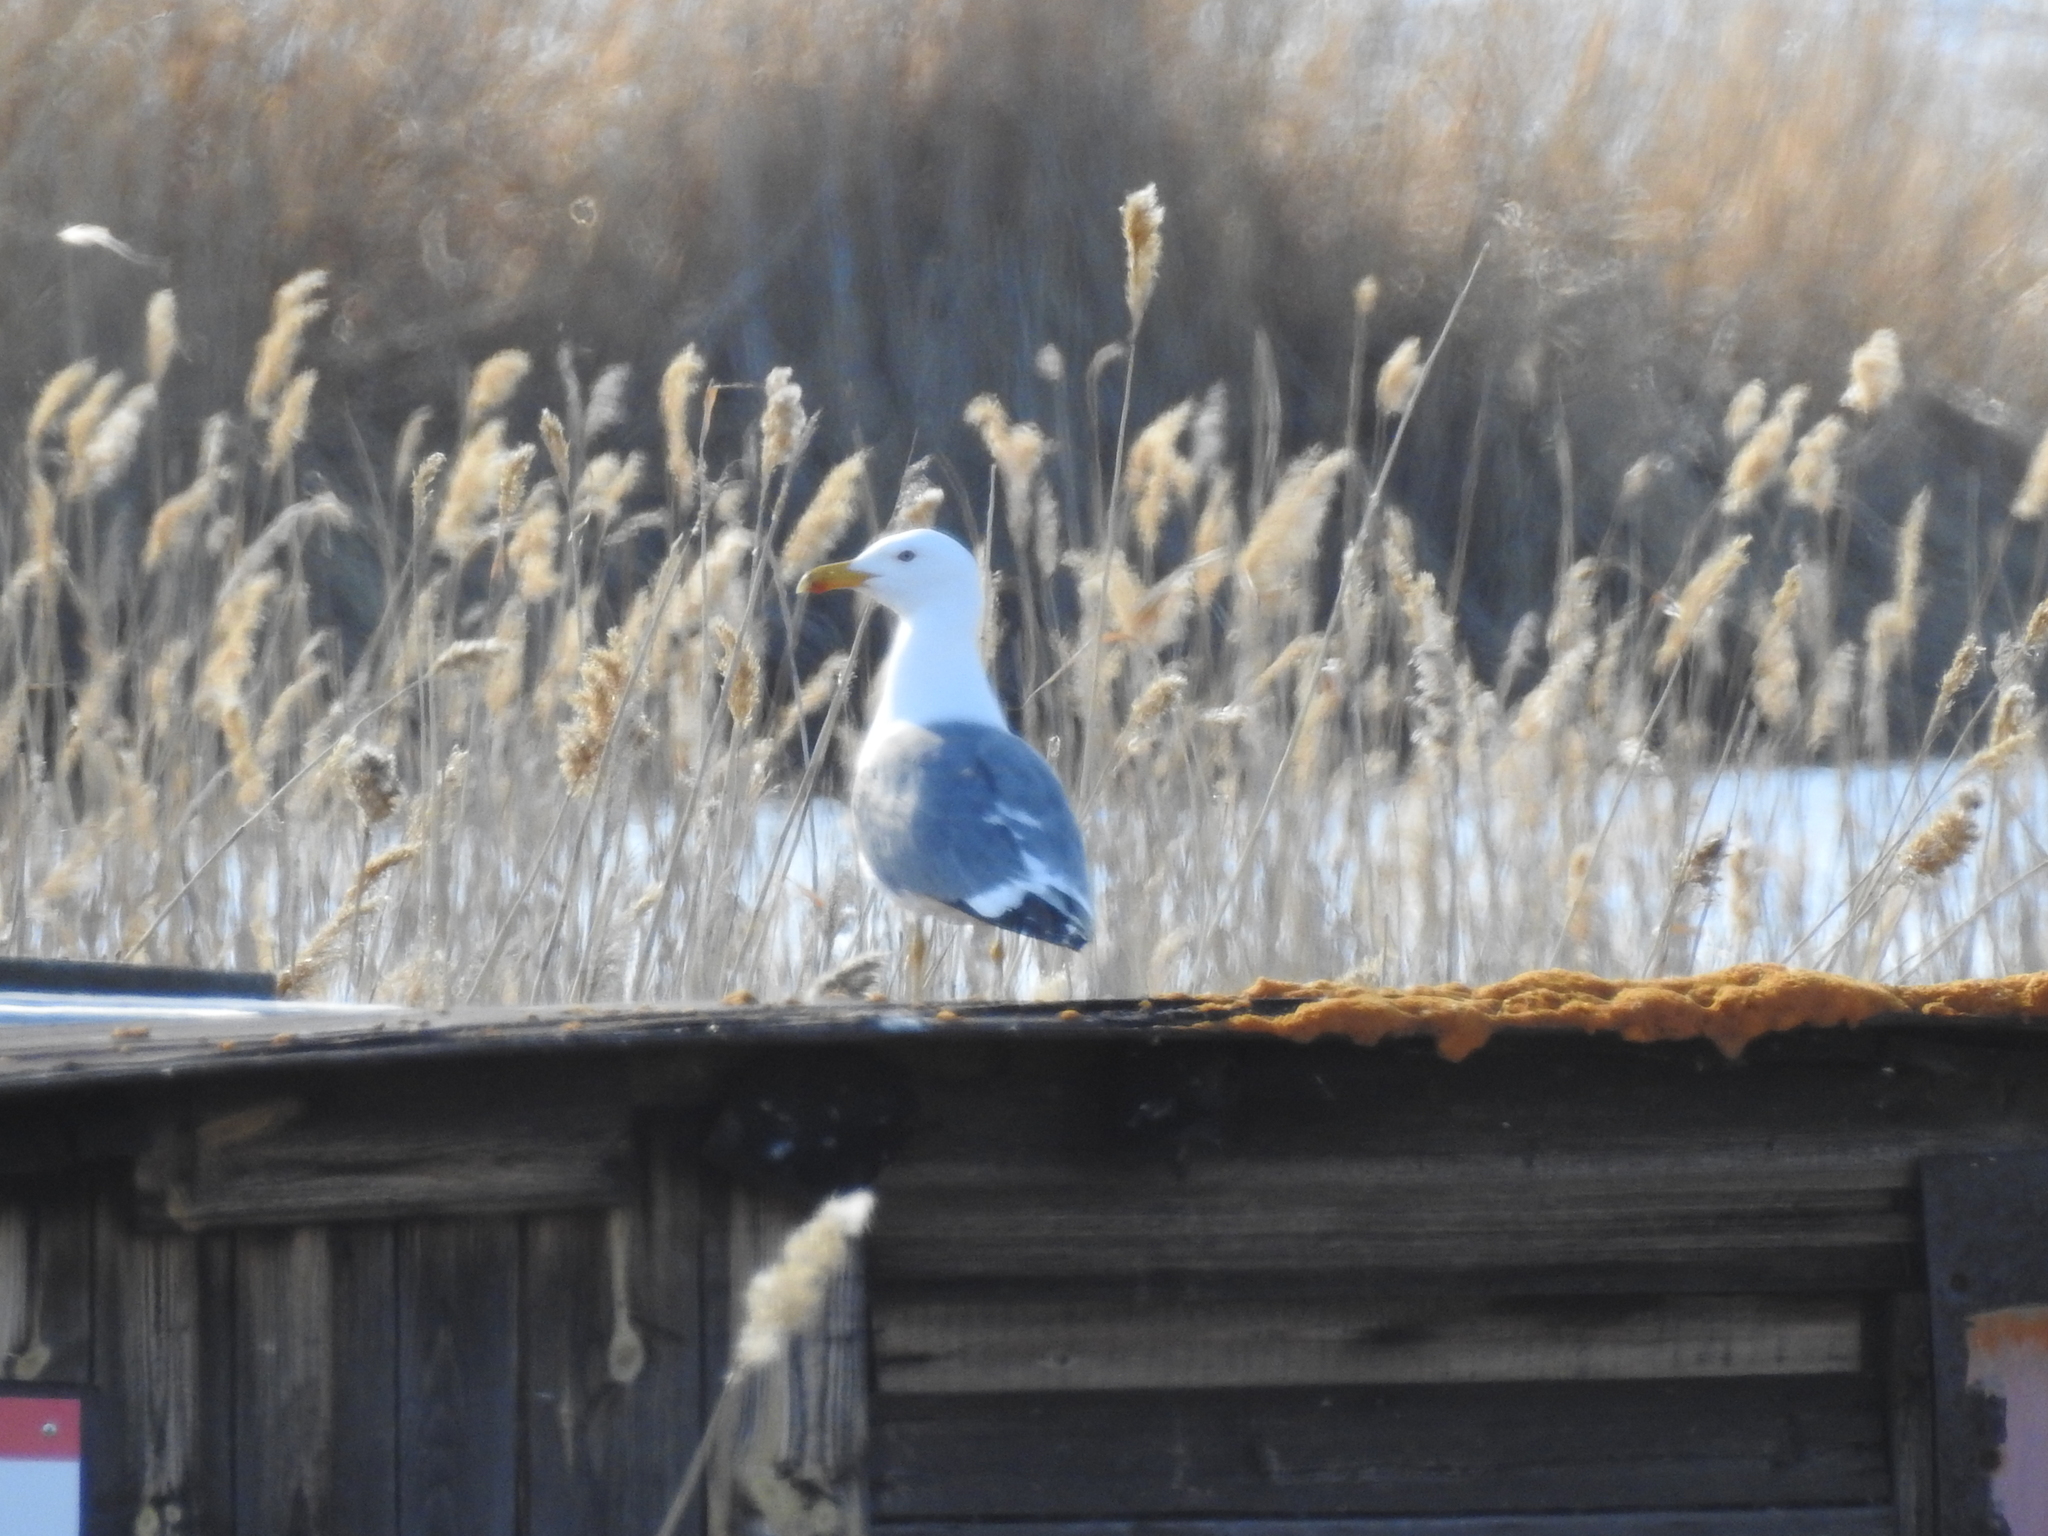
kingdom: Animalia
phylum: Chordata
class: Aves
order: Charadriiformes
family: Laridae
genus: Larus
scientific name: Larus fuscus
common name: Lesser black-backed gull
